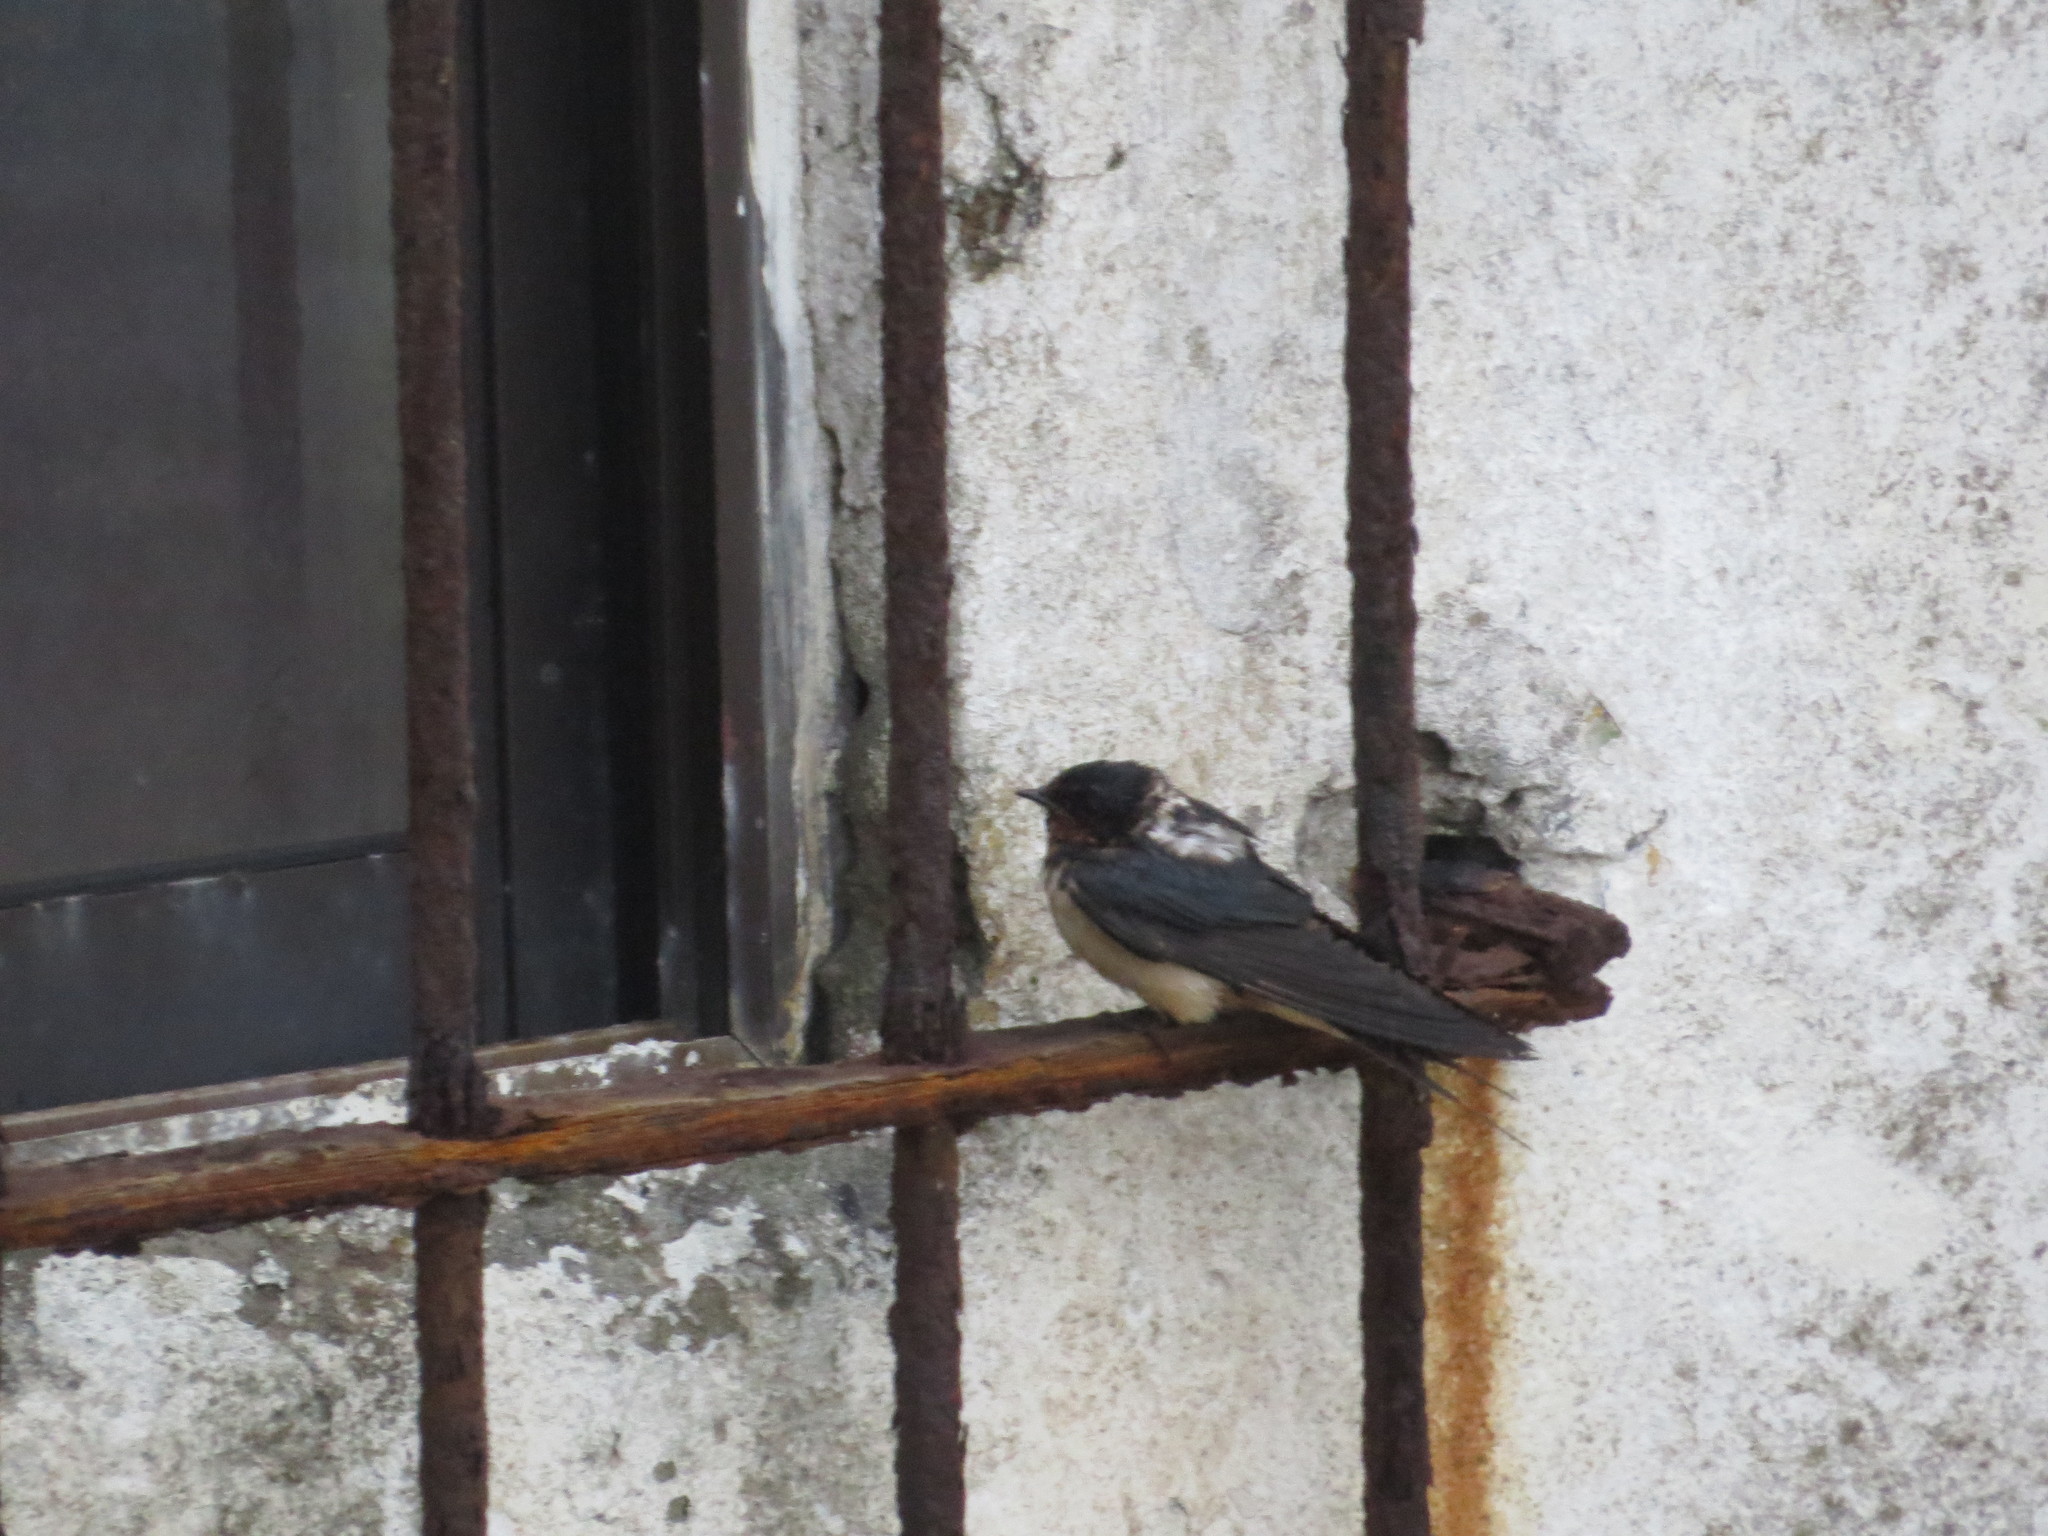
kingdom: Animalia
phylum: Chordata
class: Aves
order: Passeriformes
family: Hirundinidae
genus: Hirundo
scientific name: Hirundo rustica
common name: Barn swallow
